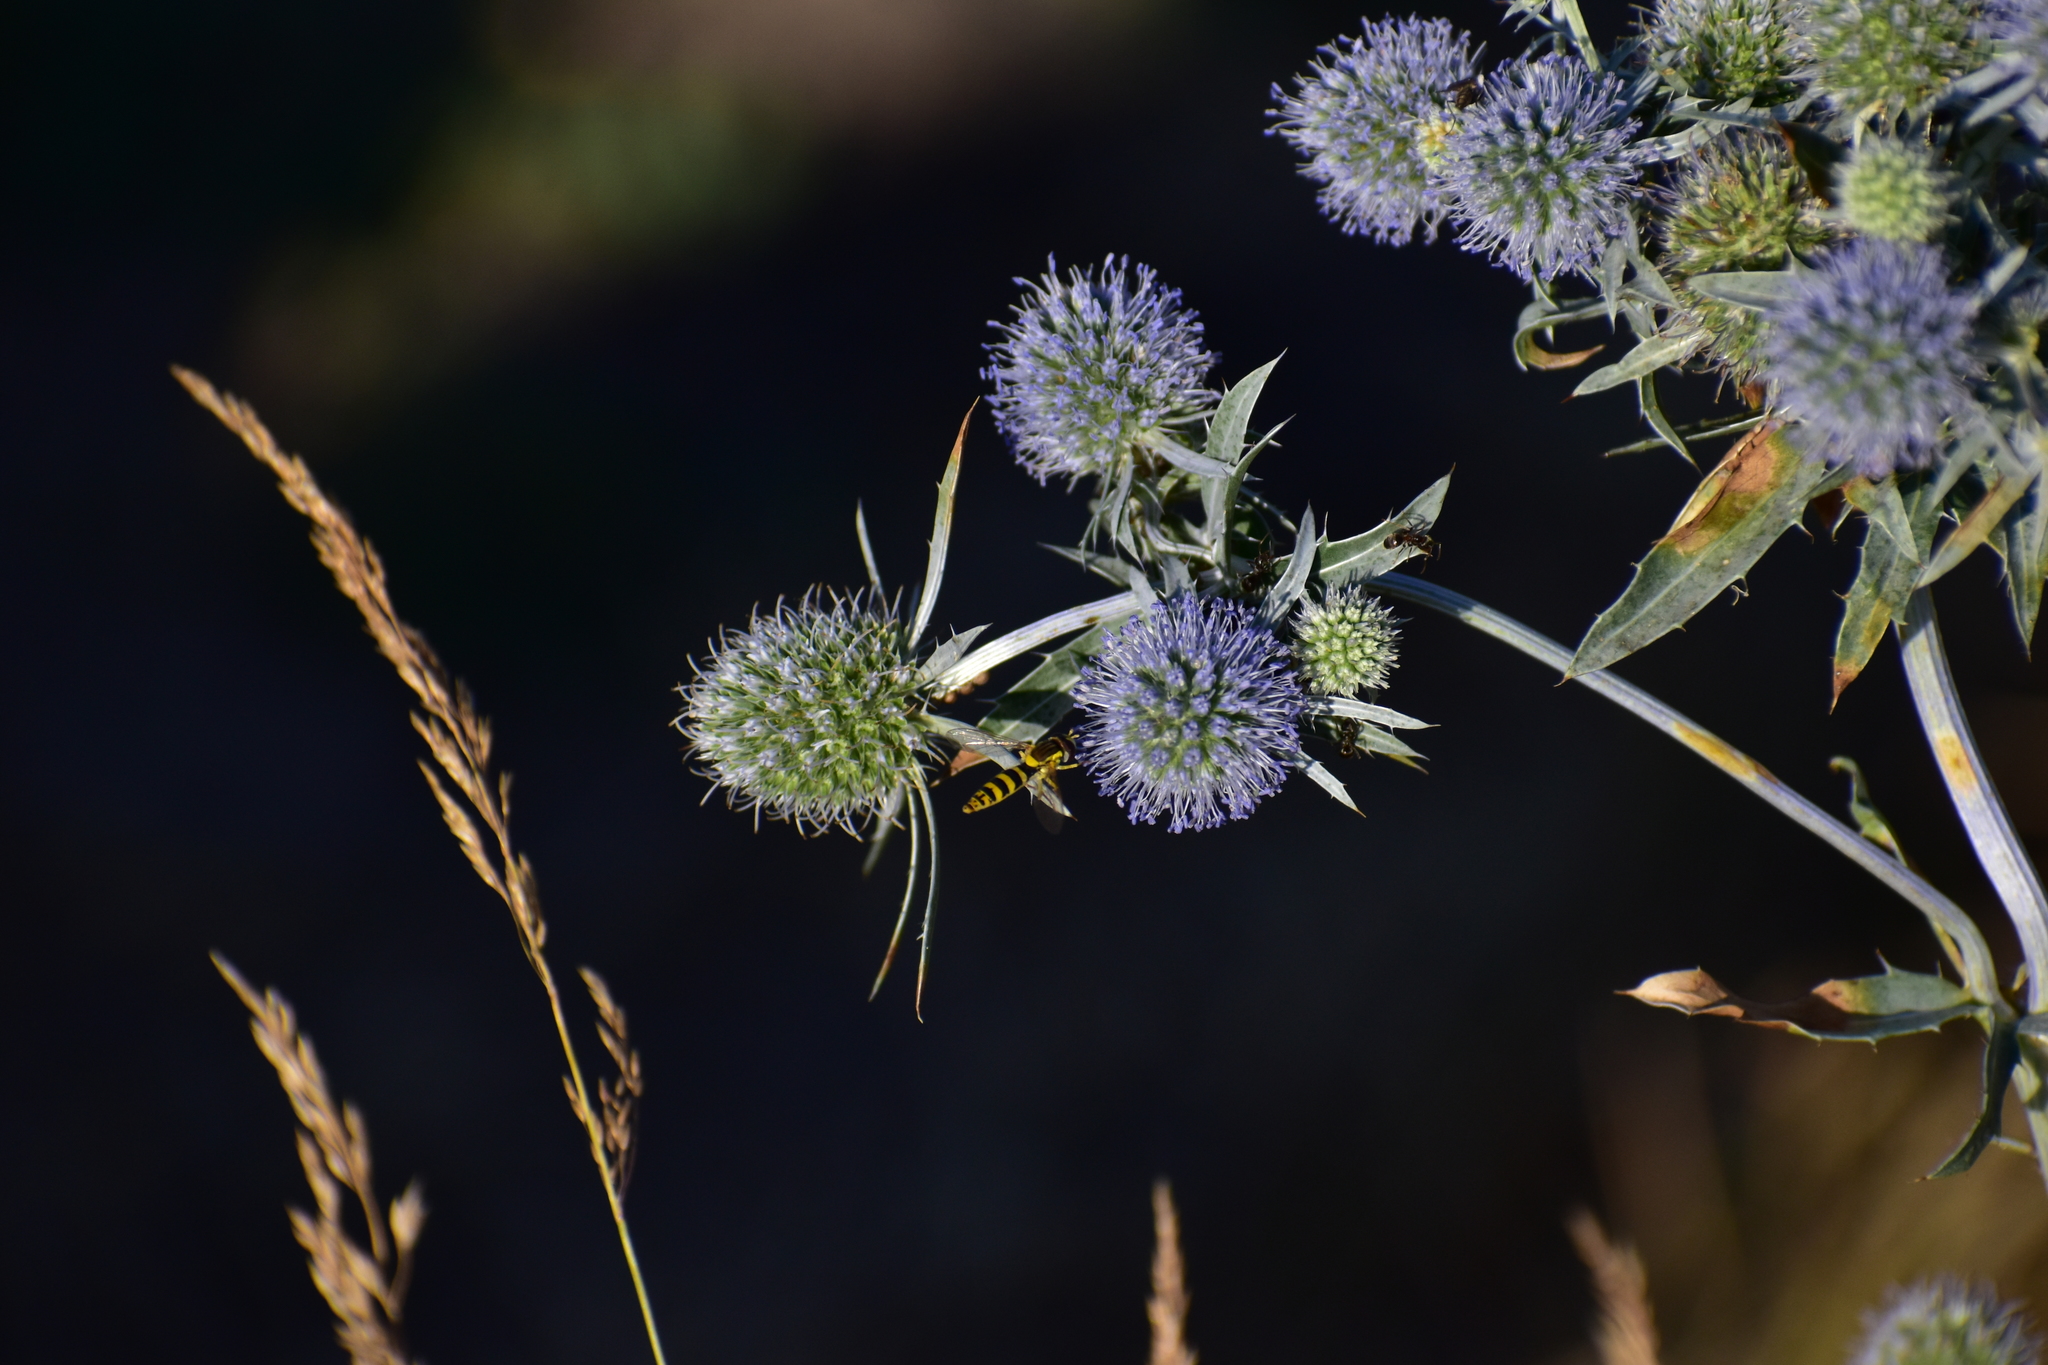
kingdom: Plantae
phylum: Tracheophyta
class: Magnoliopsida
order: Apiales
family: Apiaceae
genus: Eryngium
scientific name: Eryngium planum
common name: Blue eryngo
